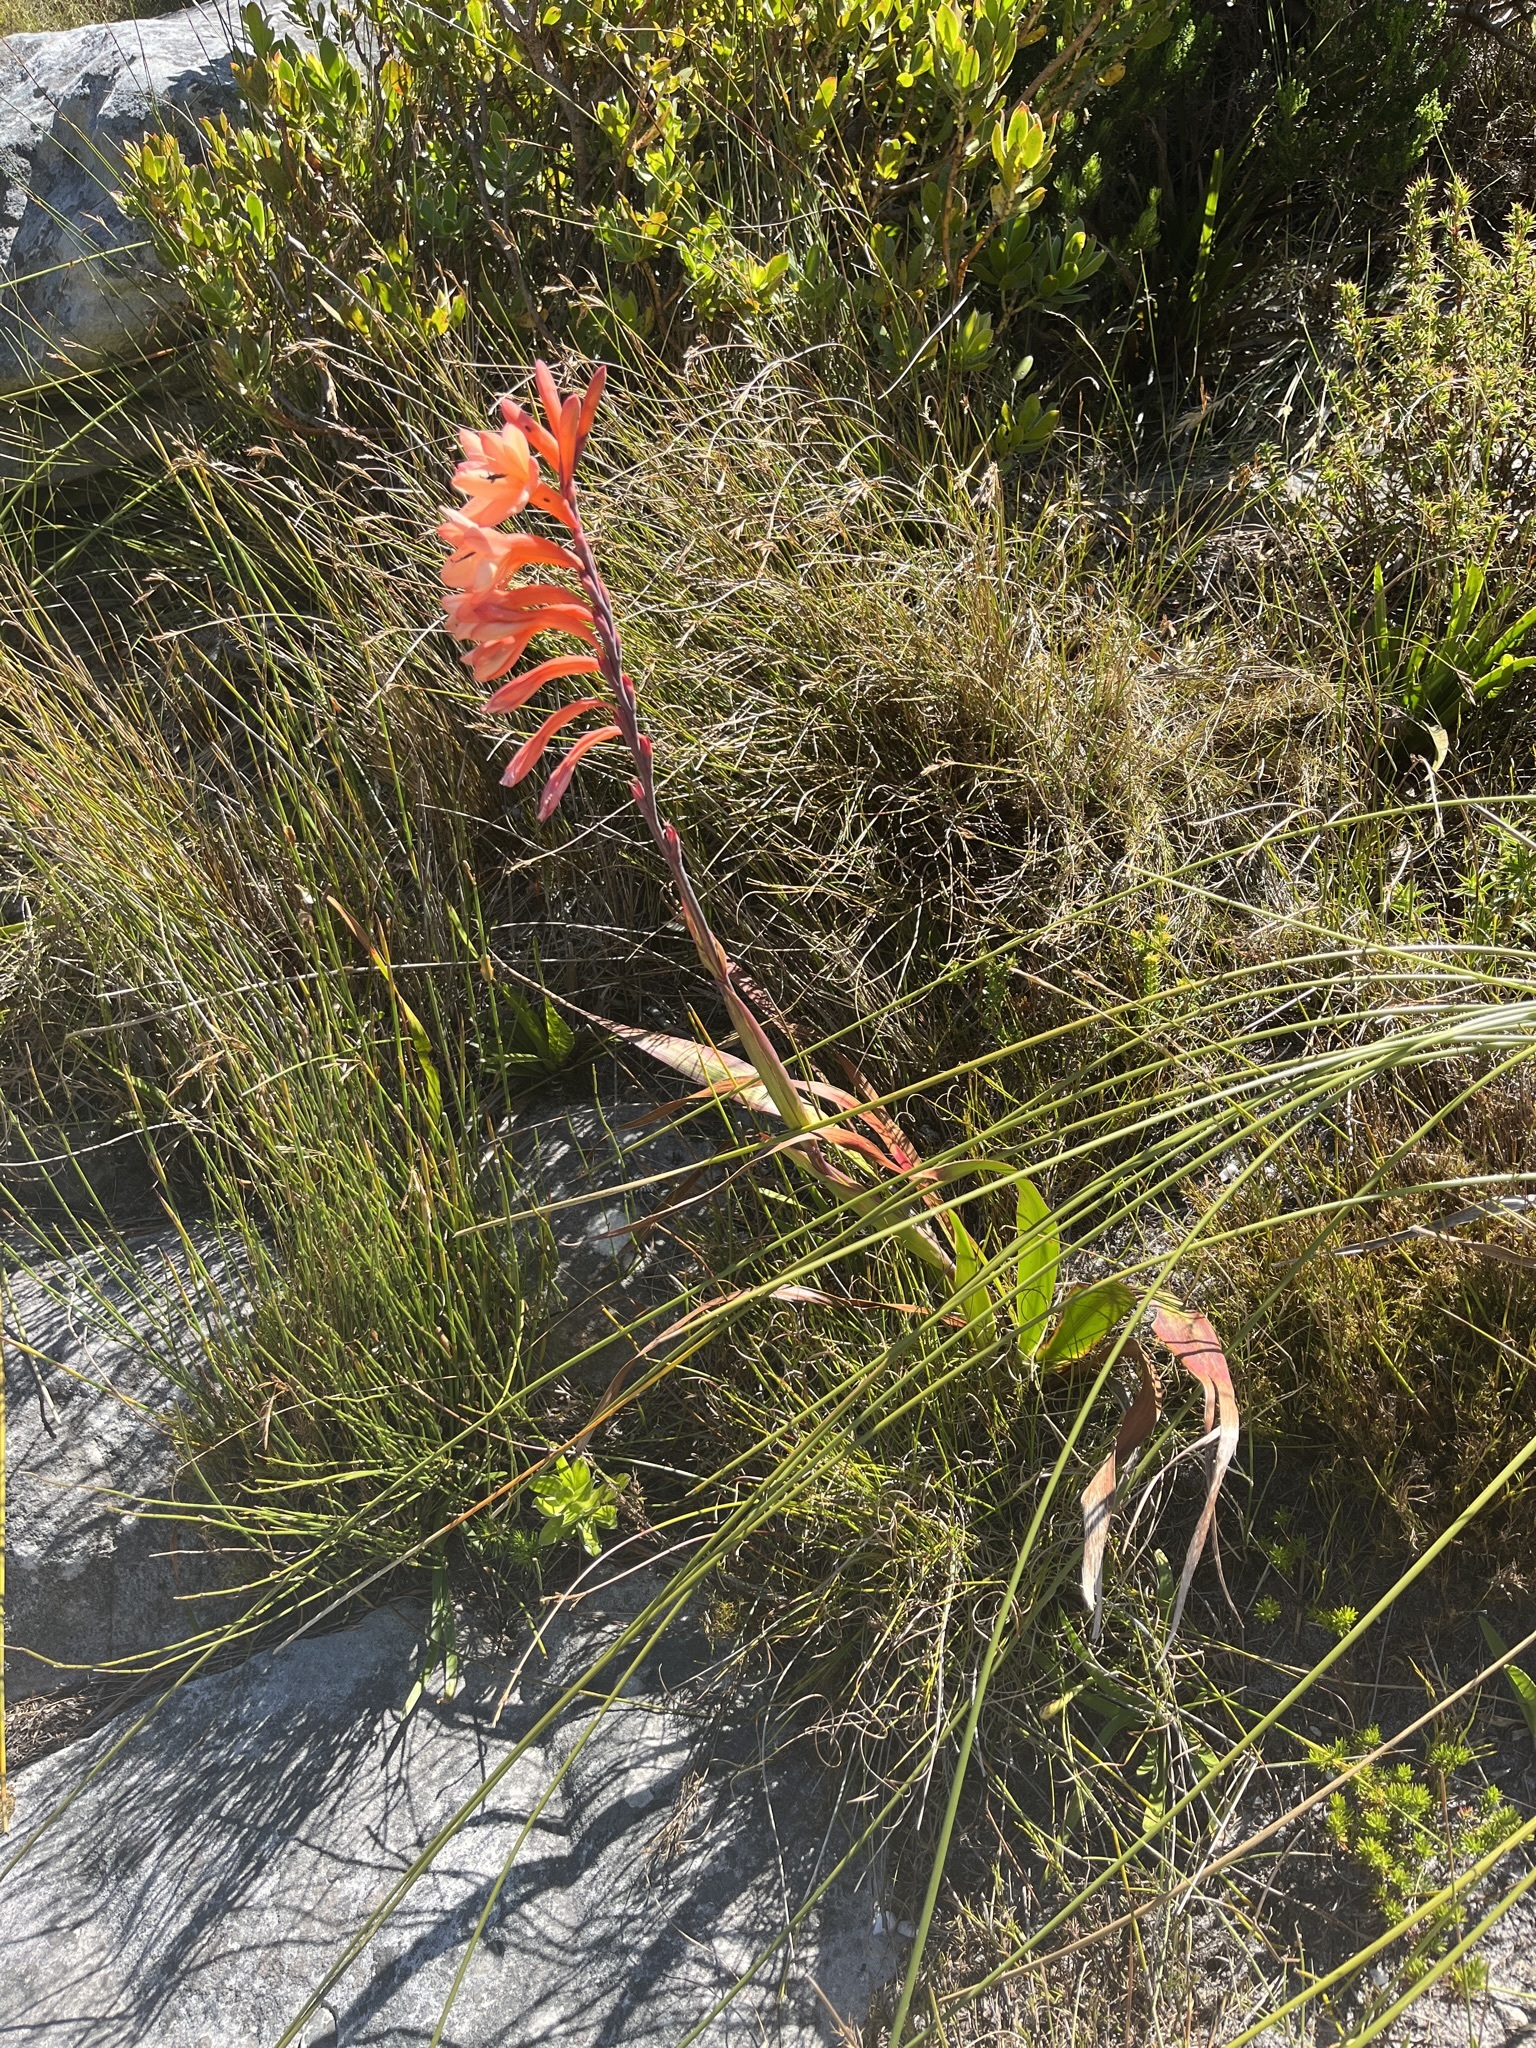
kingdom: Plantae
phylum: Tracheophyta
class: Liliopsida
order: Asparagales
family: Iridaceae
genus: Watsonia
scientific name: Watsonia tabularis
